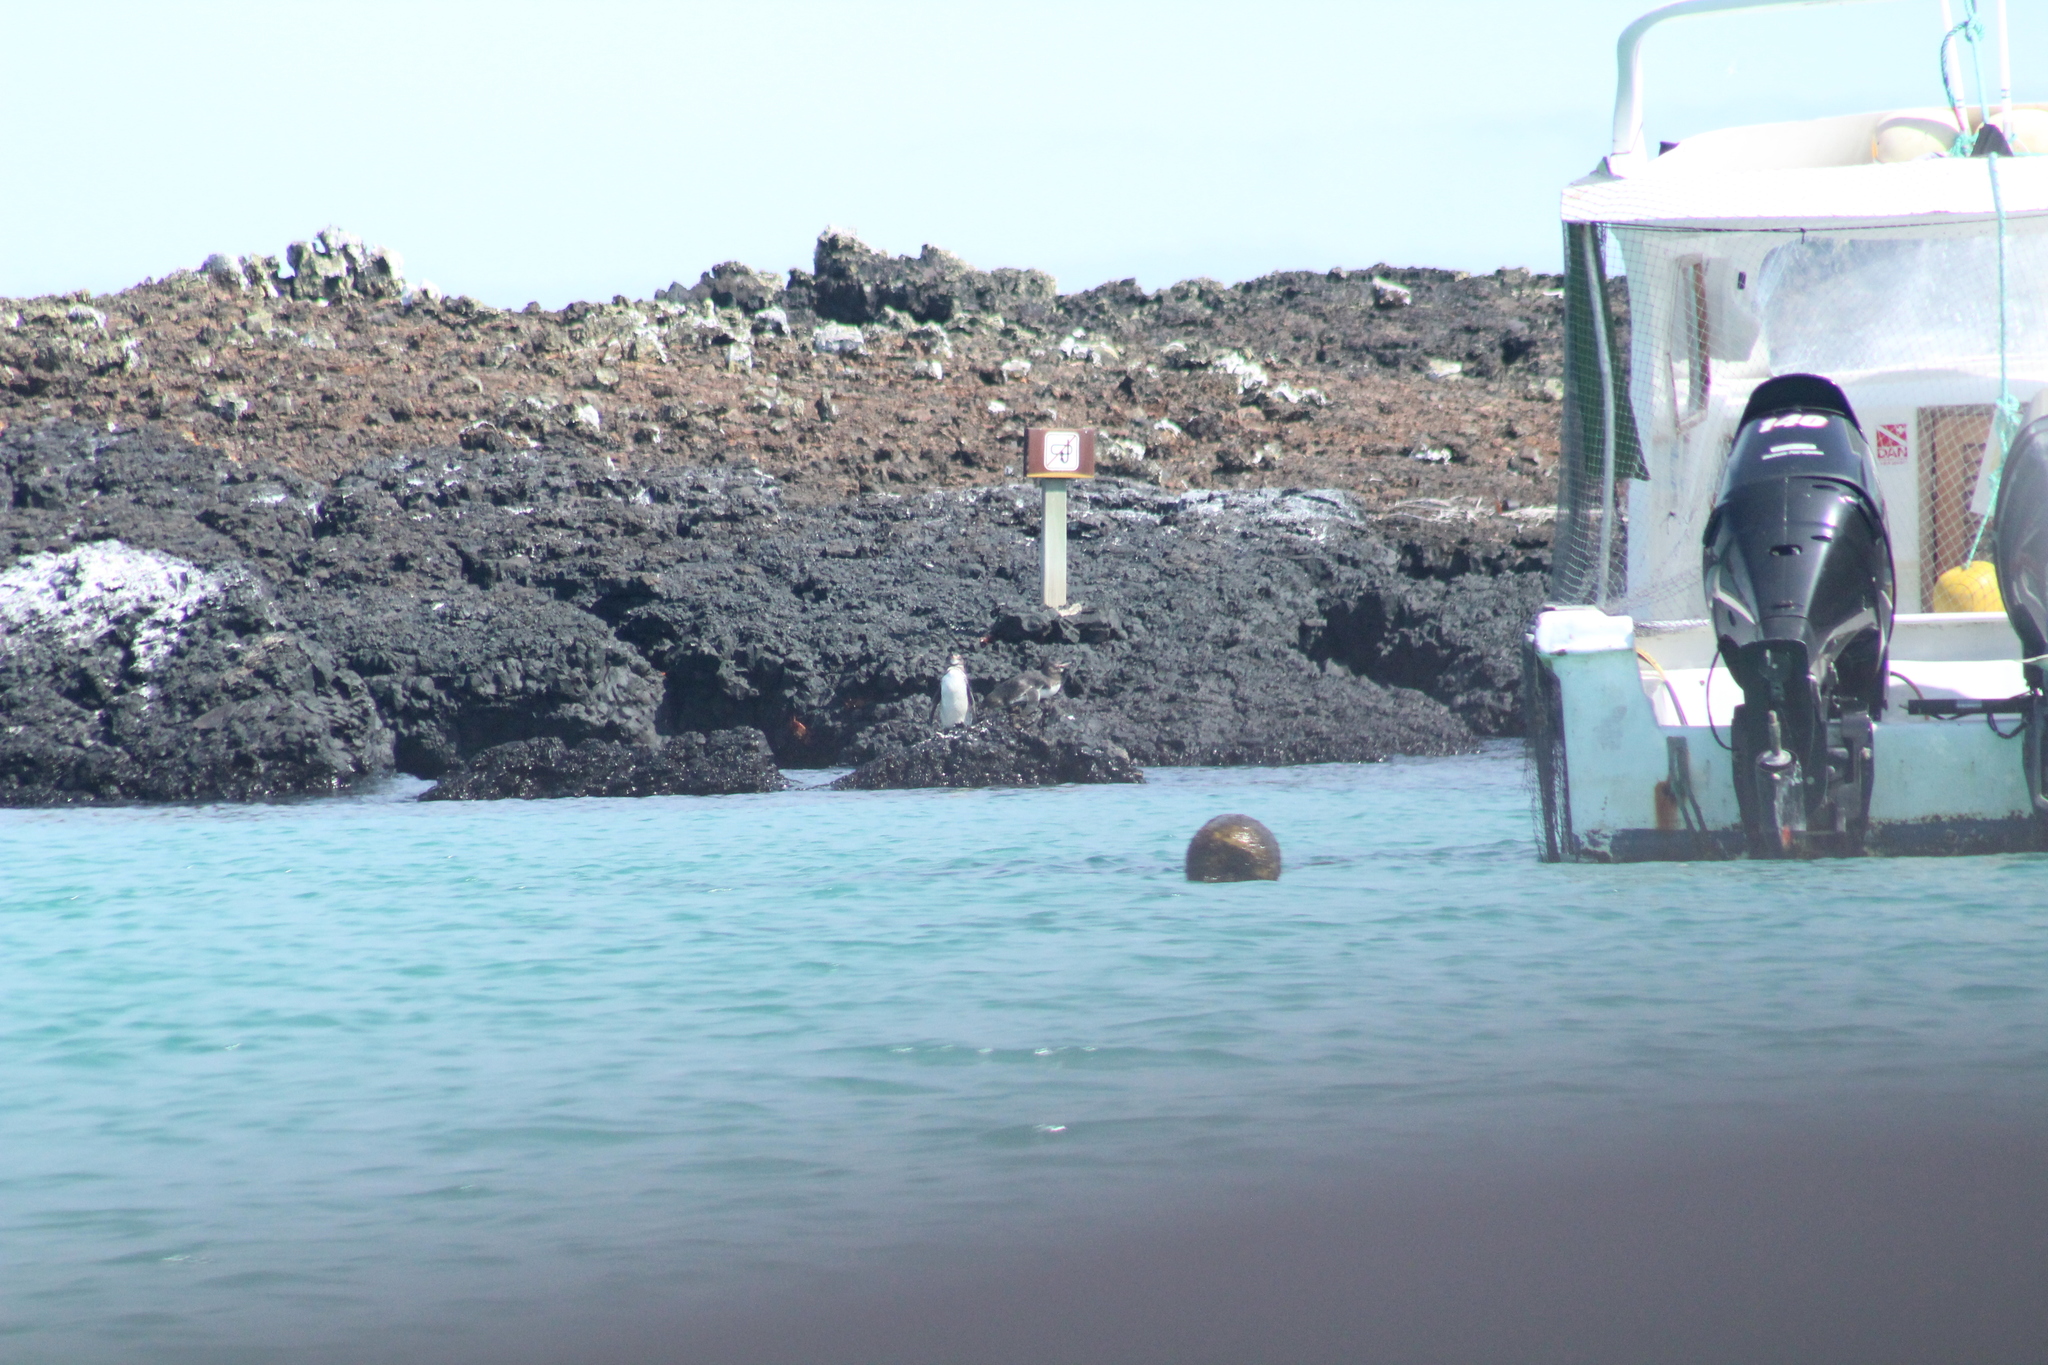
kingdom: Animalia
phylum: Chordata
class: Aves
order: Sphenisciformes
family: Spheniscidae
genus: Spheniscus
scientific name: Spheniscus mendiculus
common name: Galapagos penguin
